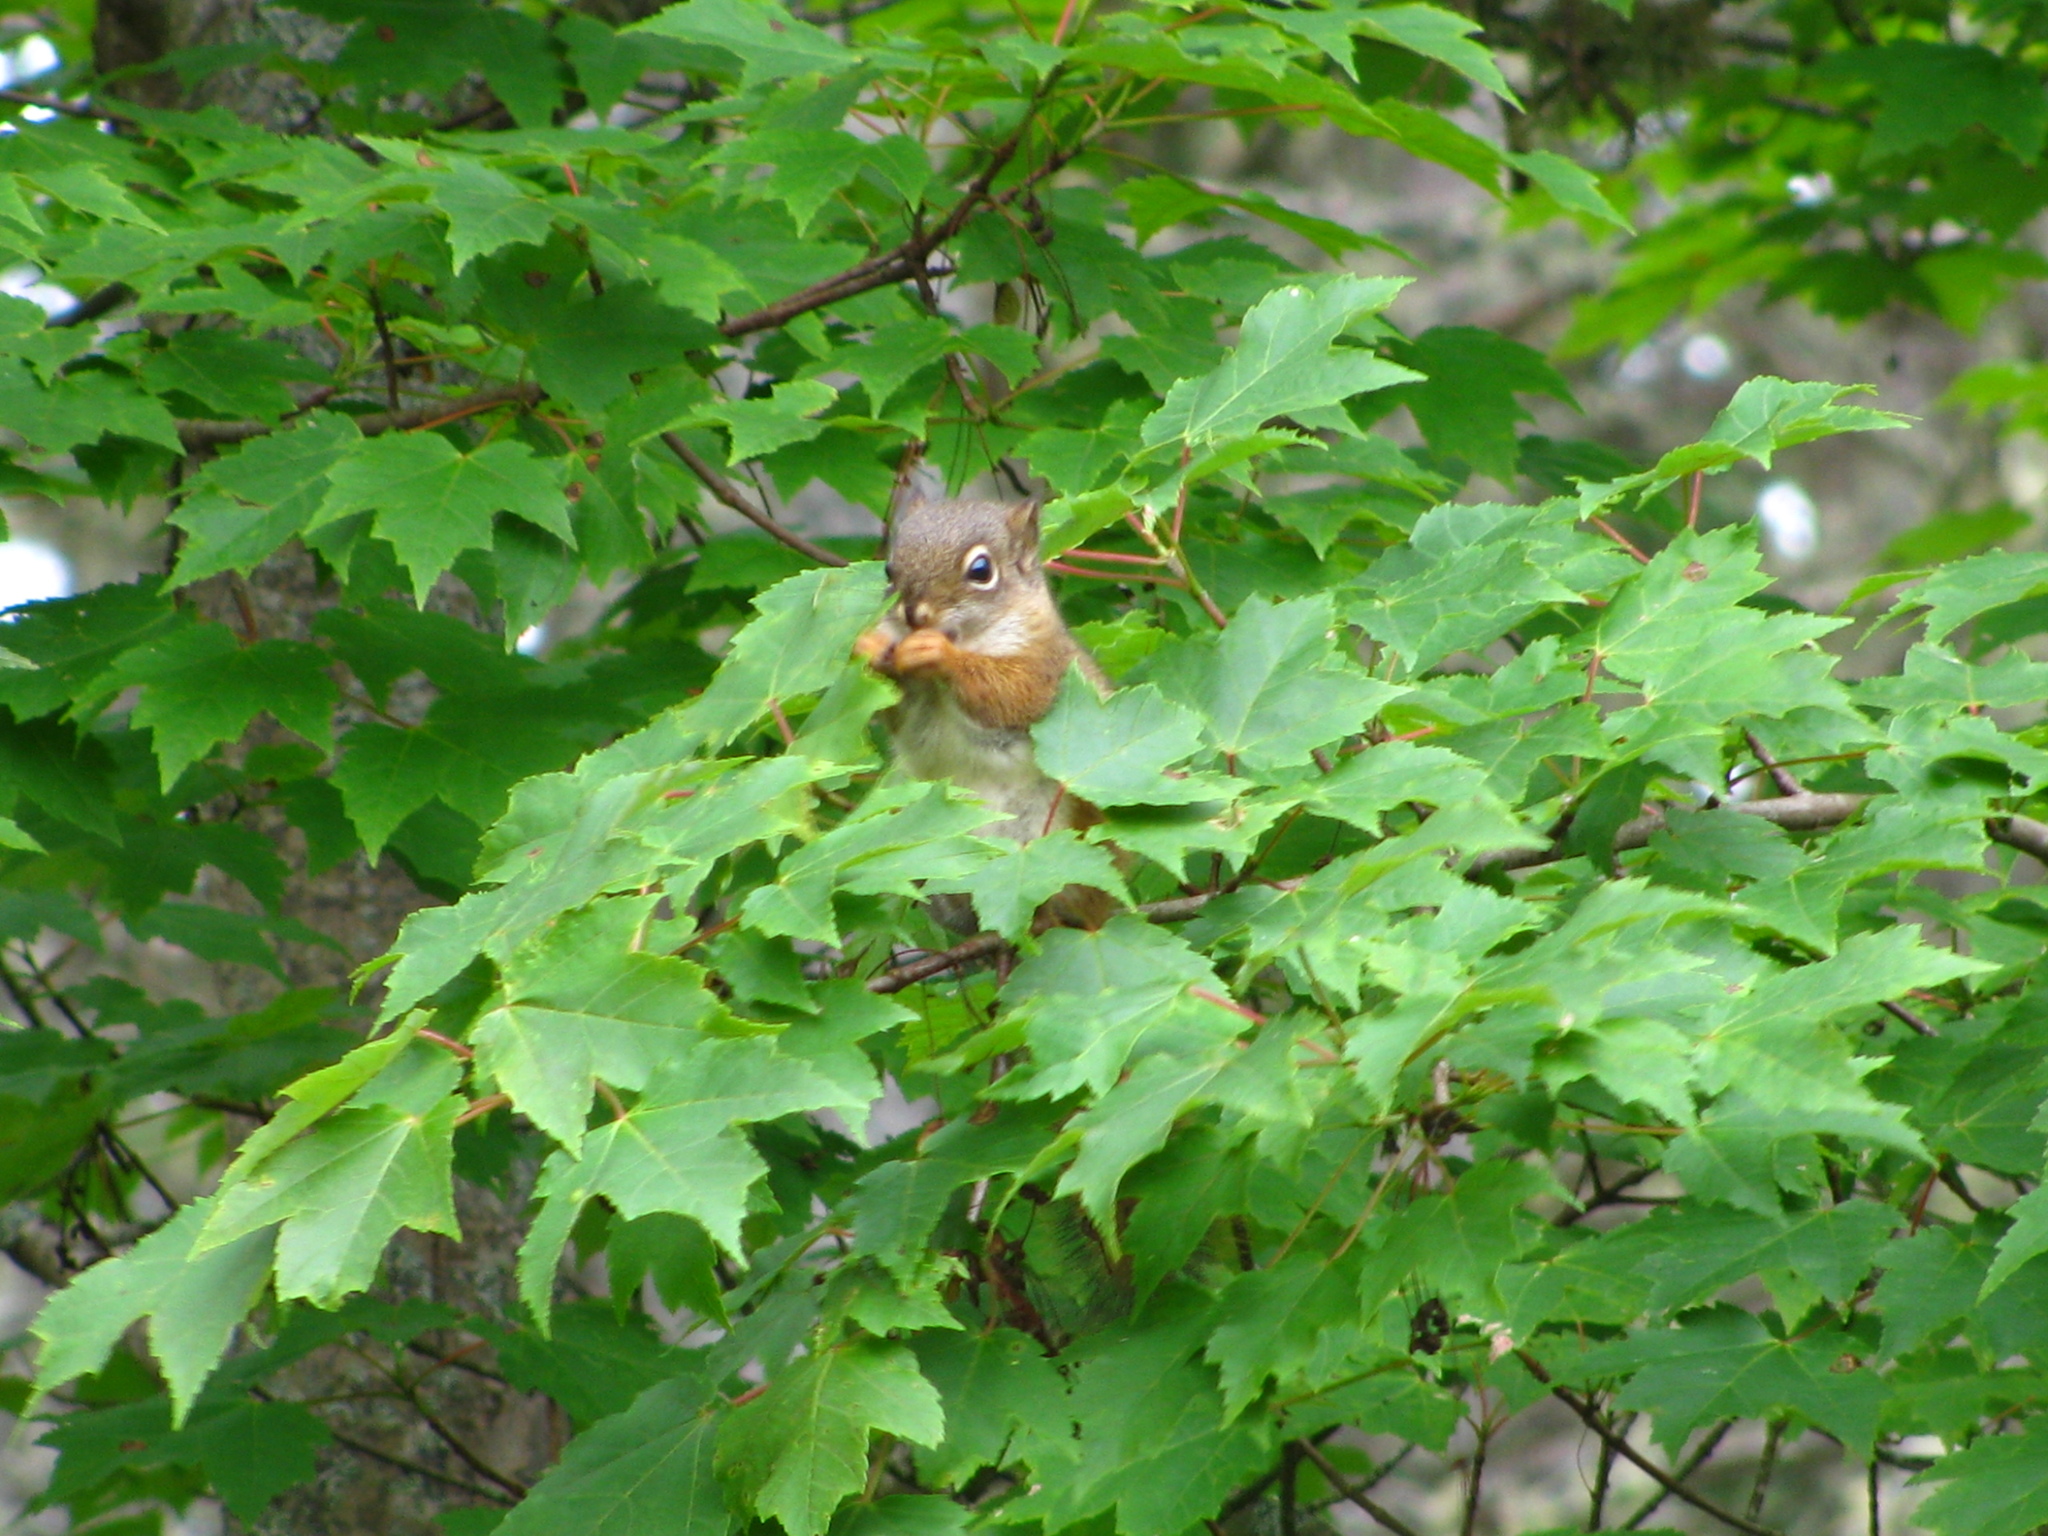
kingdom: Animalia
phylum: Chordata
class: Mammalia
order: Rodentia
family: Sciuridae
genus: Tamiasciurus
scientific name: Tamiasciurus hudsonicus
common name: Red squirrel
